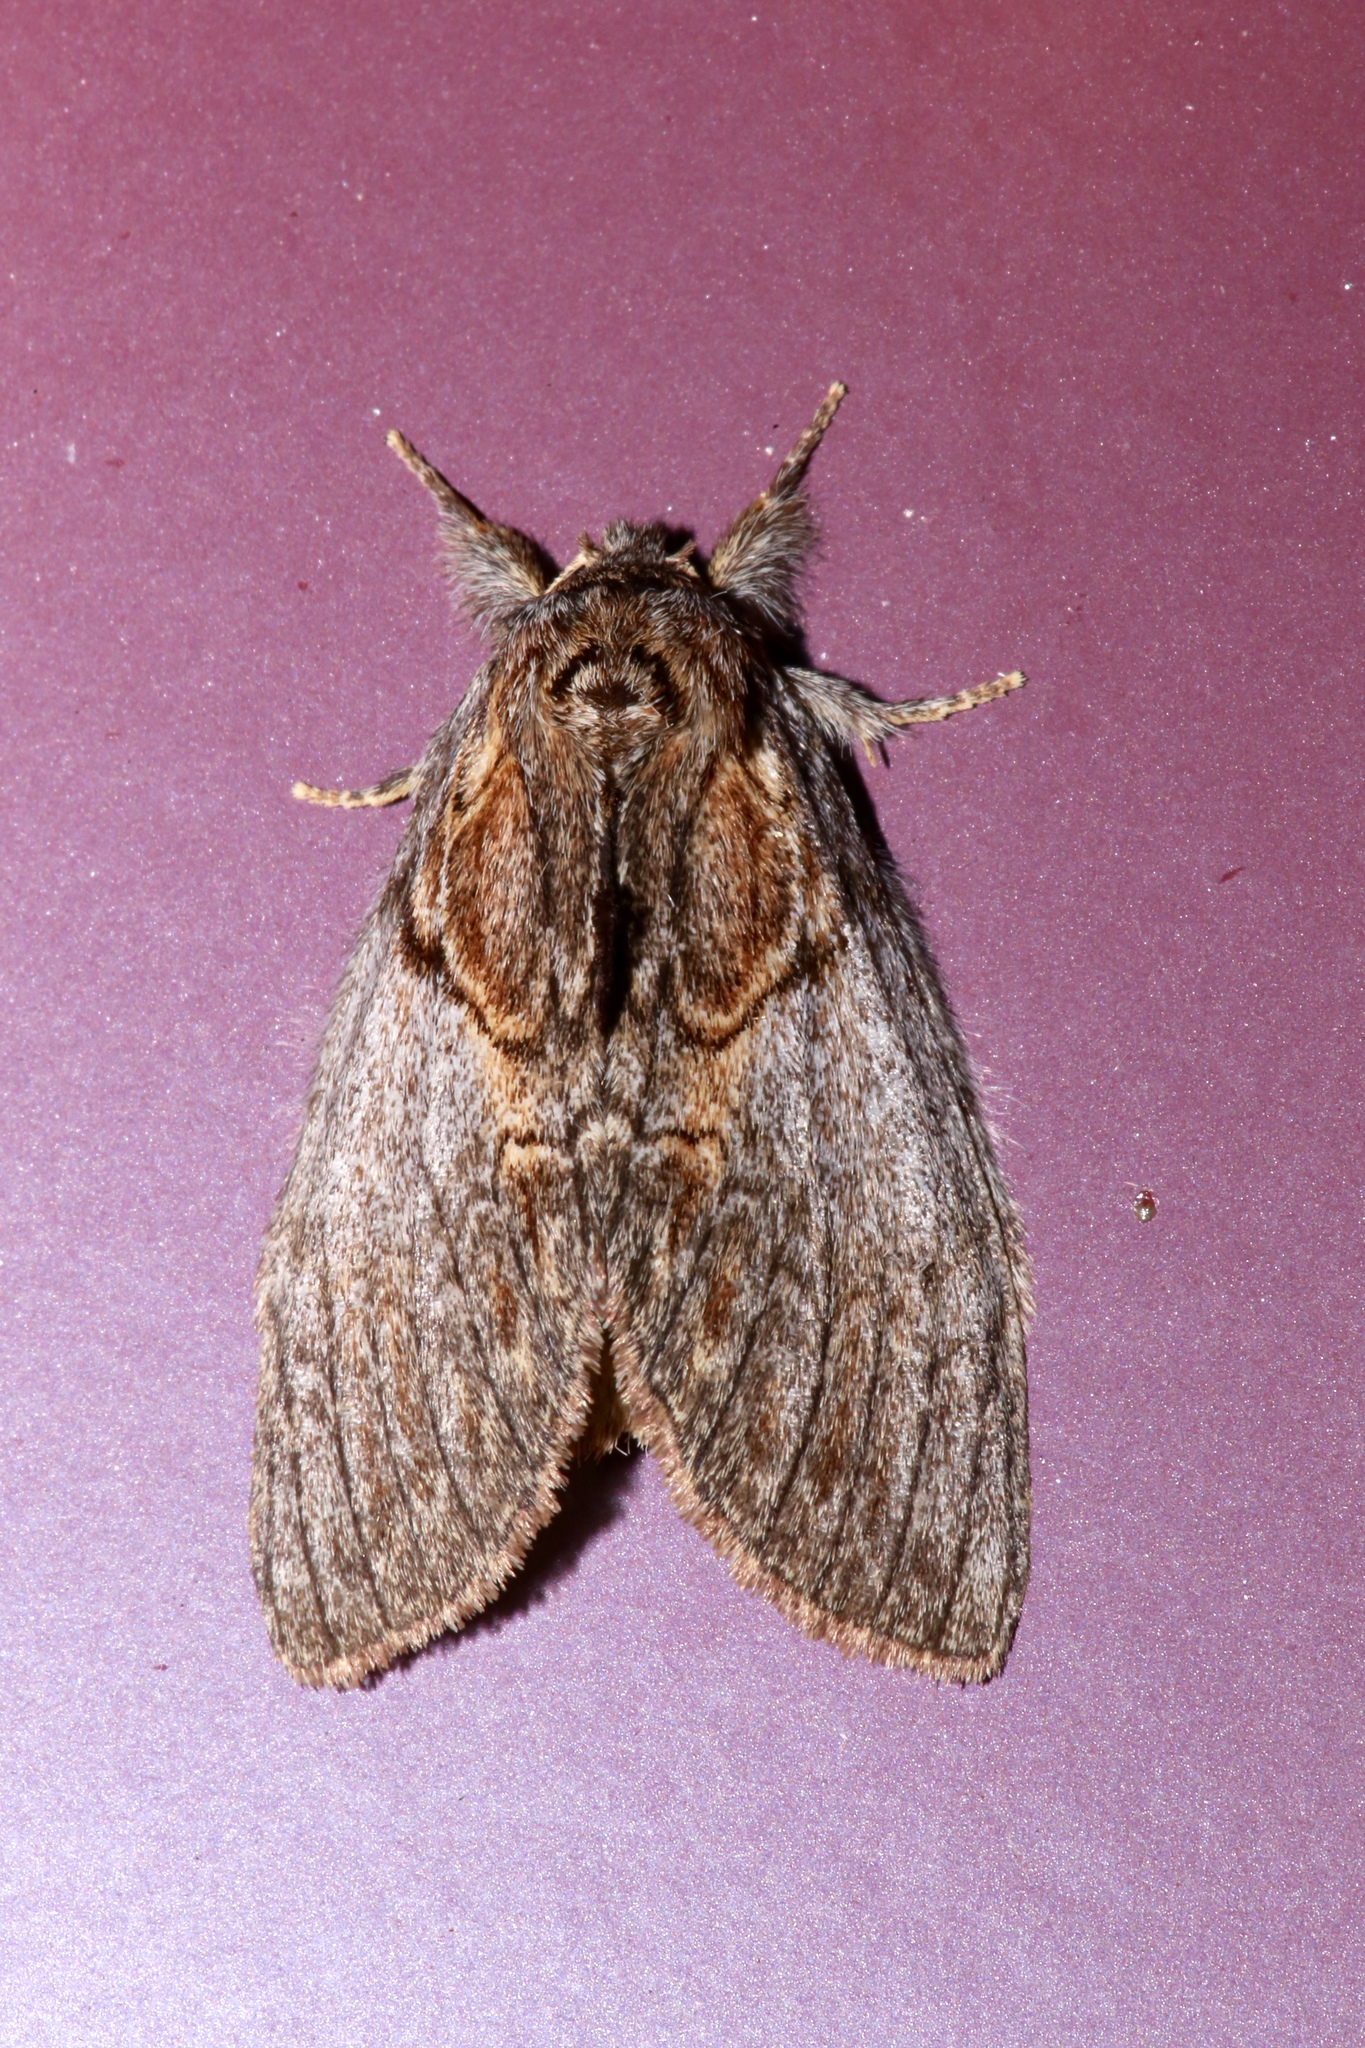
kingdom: Animalia
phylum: Arthropoda
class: Insecta
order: Lepidoptera
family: Notodontidae
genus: Peridea
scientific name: Peridea basitriens
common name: Oval-based prominent
